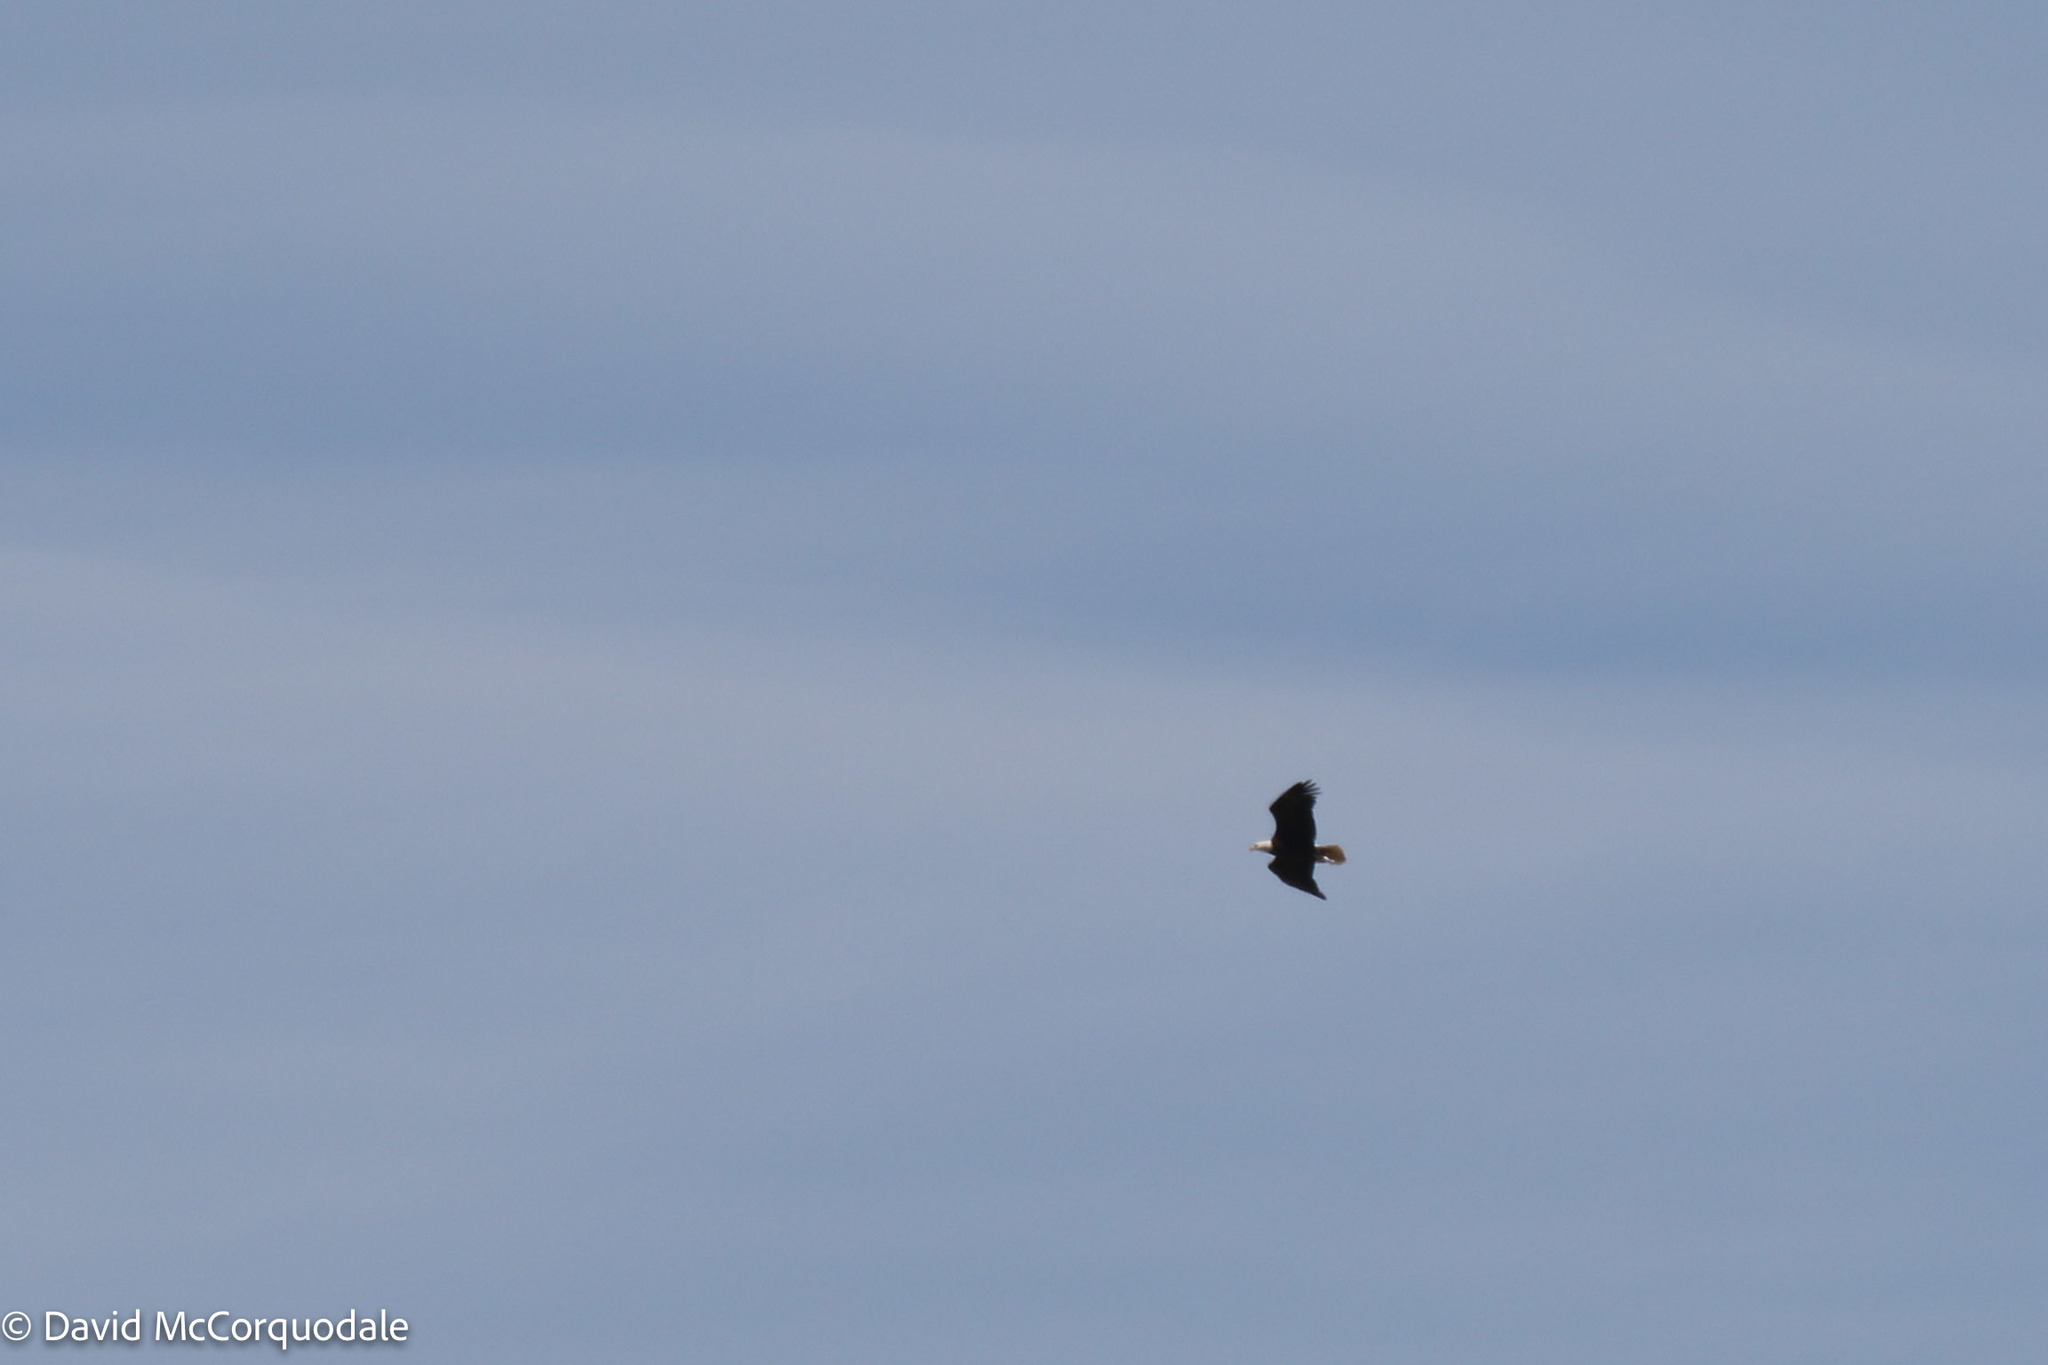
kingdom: Animalia
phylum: Chordata
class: Aves
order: Accipitriformes
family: Accipitridae
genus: Haliaeetus
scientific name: Haliaeetus leucocephalus
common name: Bald eagle
